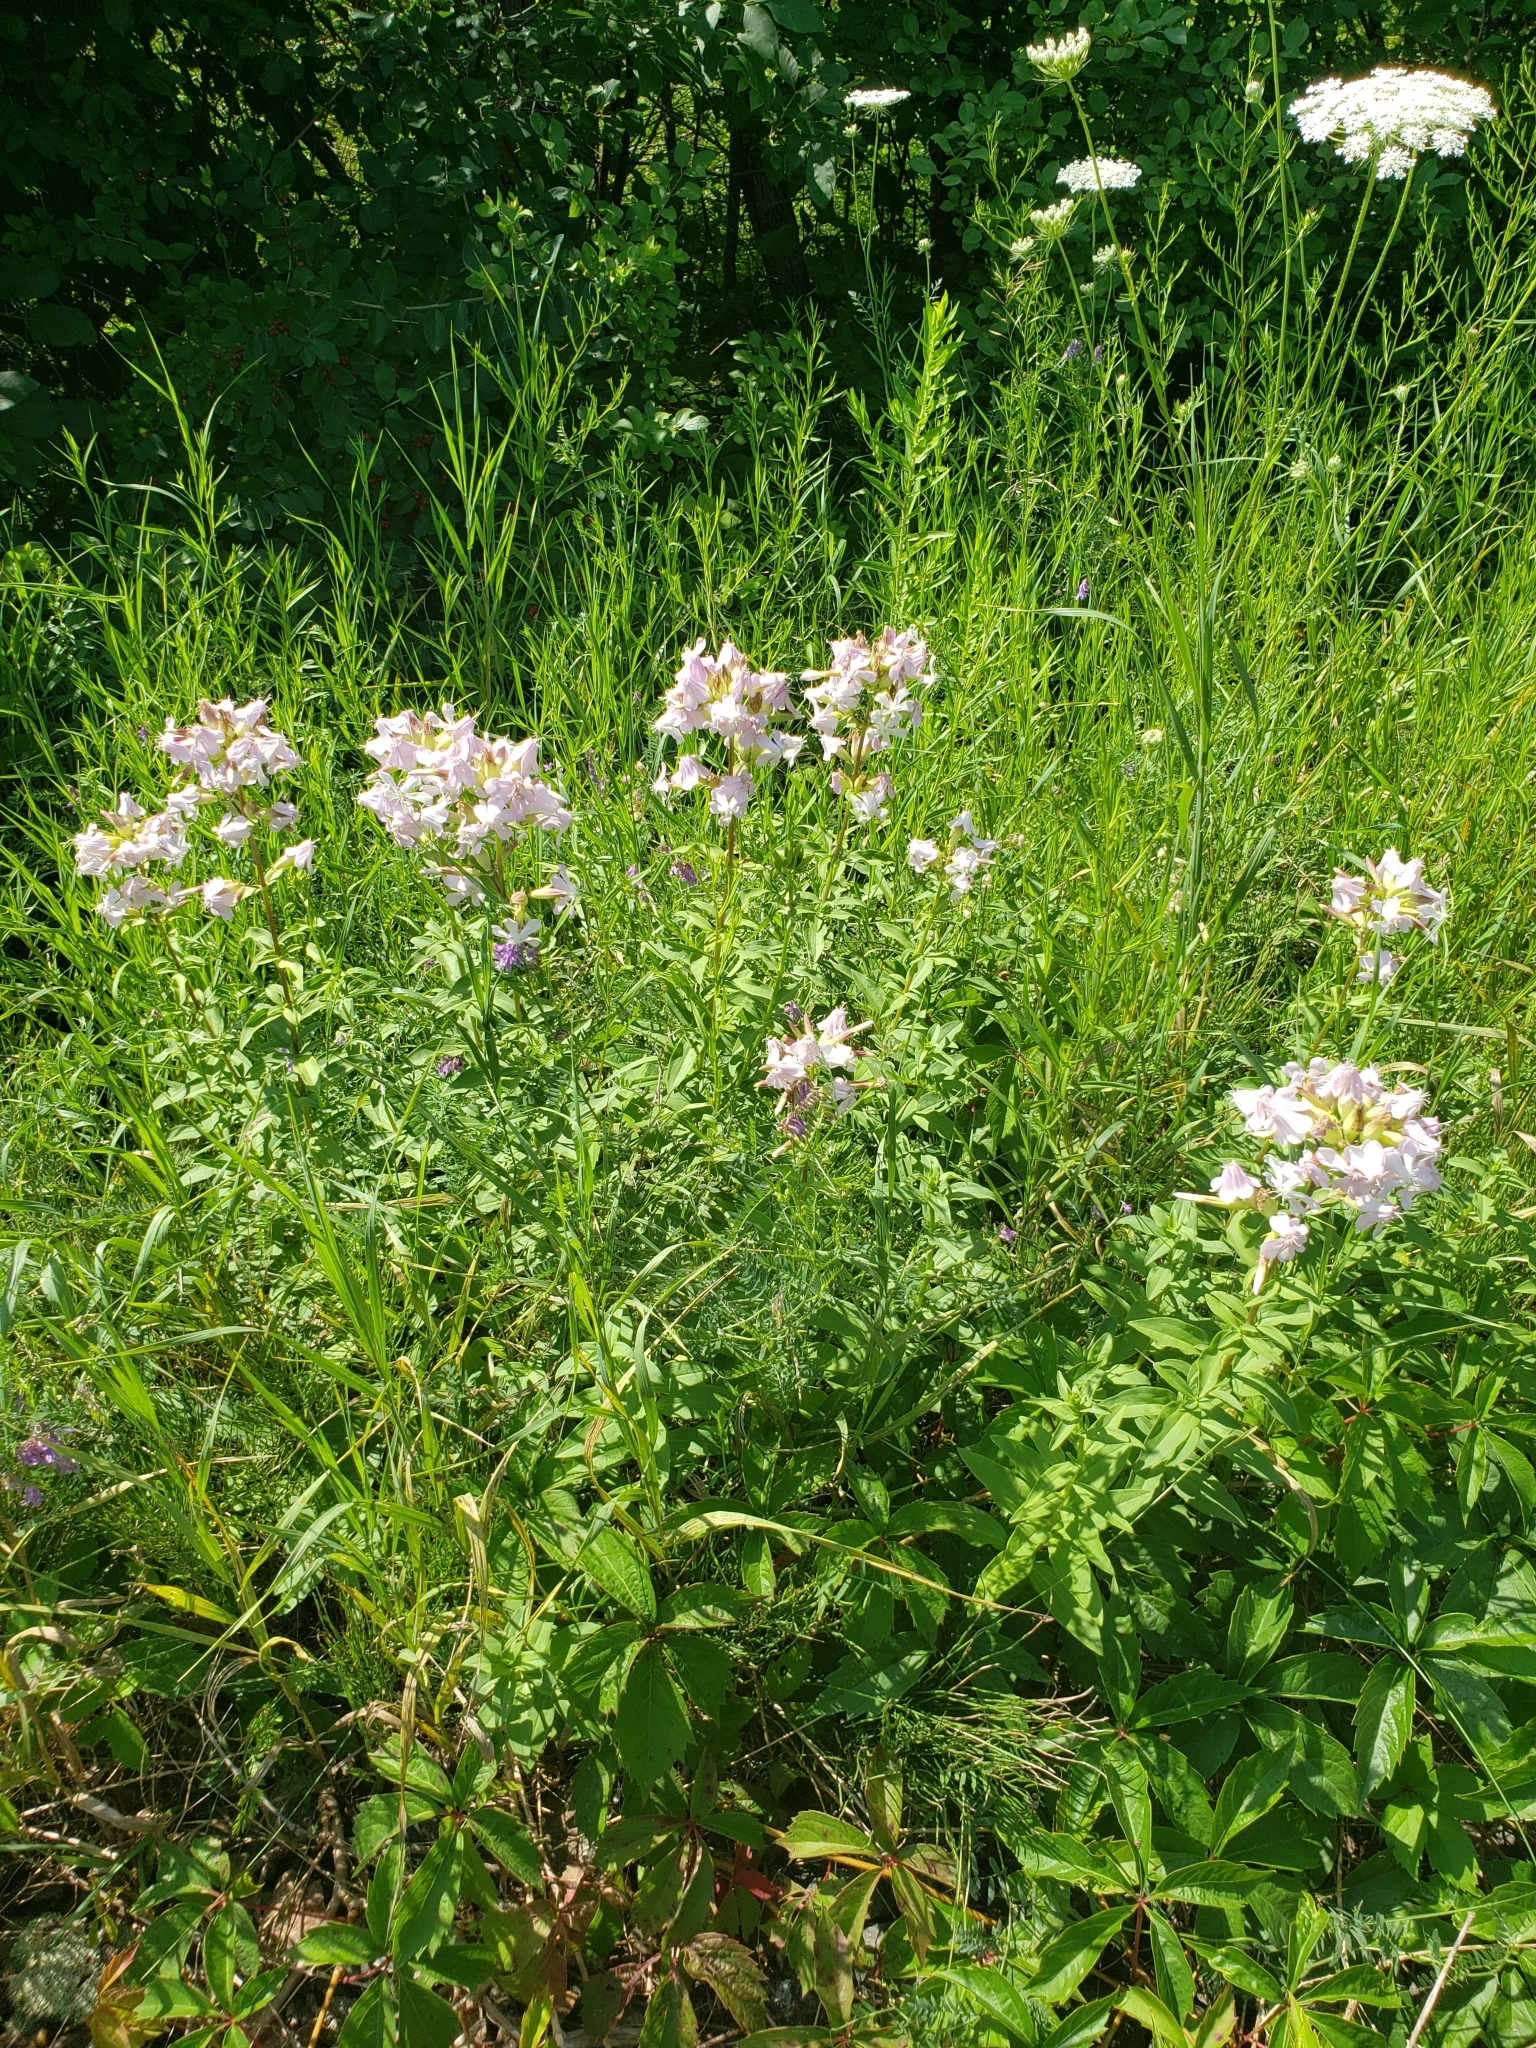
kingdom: Plantae
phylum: Tracheophyta
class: Magnoliopsida
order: Caryophyllales
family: Caryophyllaceae
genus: Saponaria
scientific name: Saponaria officinalis
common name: Soapwort
